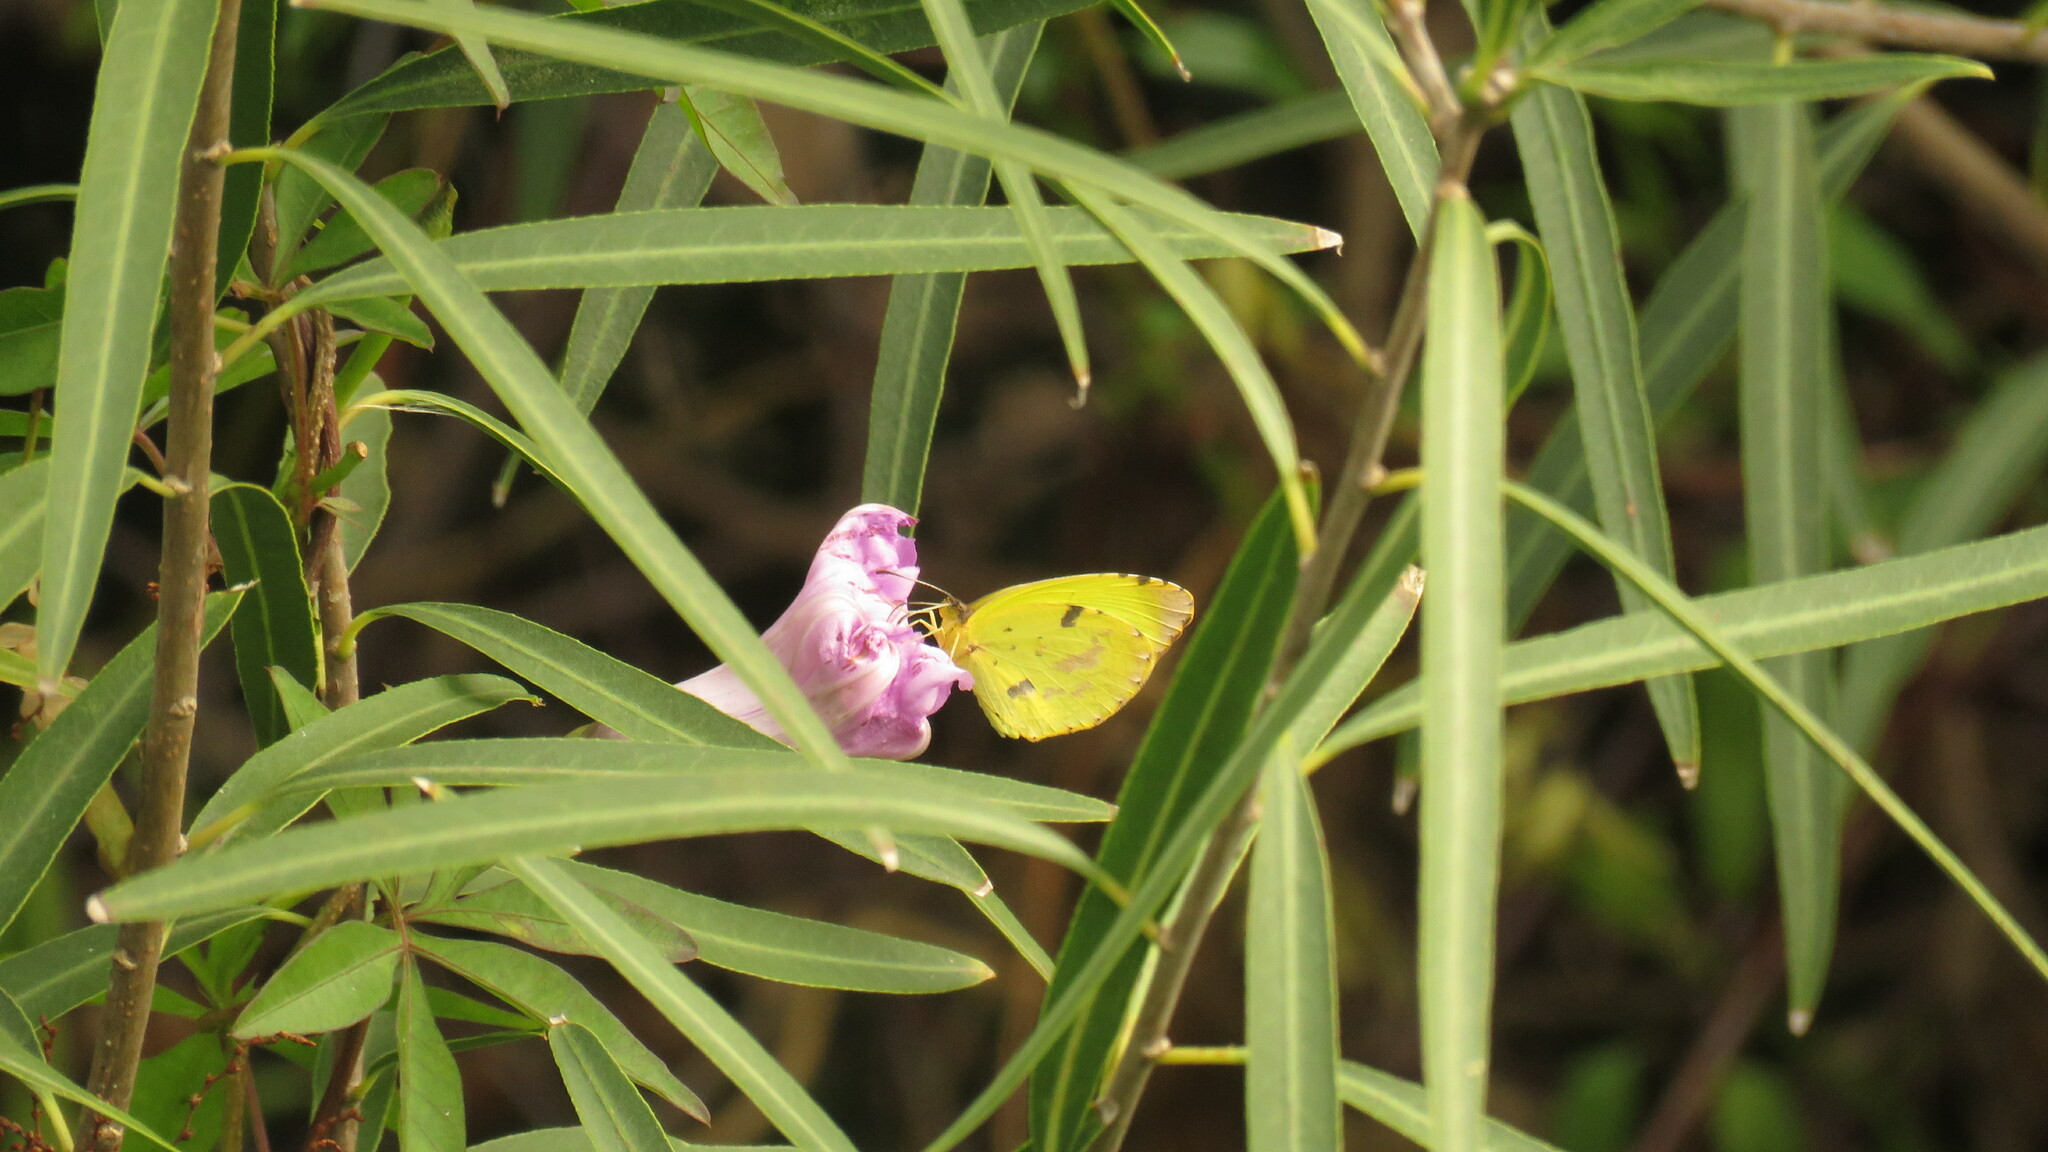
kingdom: Animalia
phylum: Arthropoda
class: Insecta
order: Lepidoptera
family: Pieridae
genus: Teriocolias
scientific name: Teriocolias
